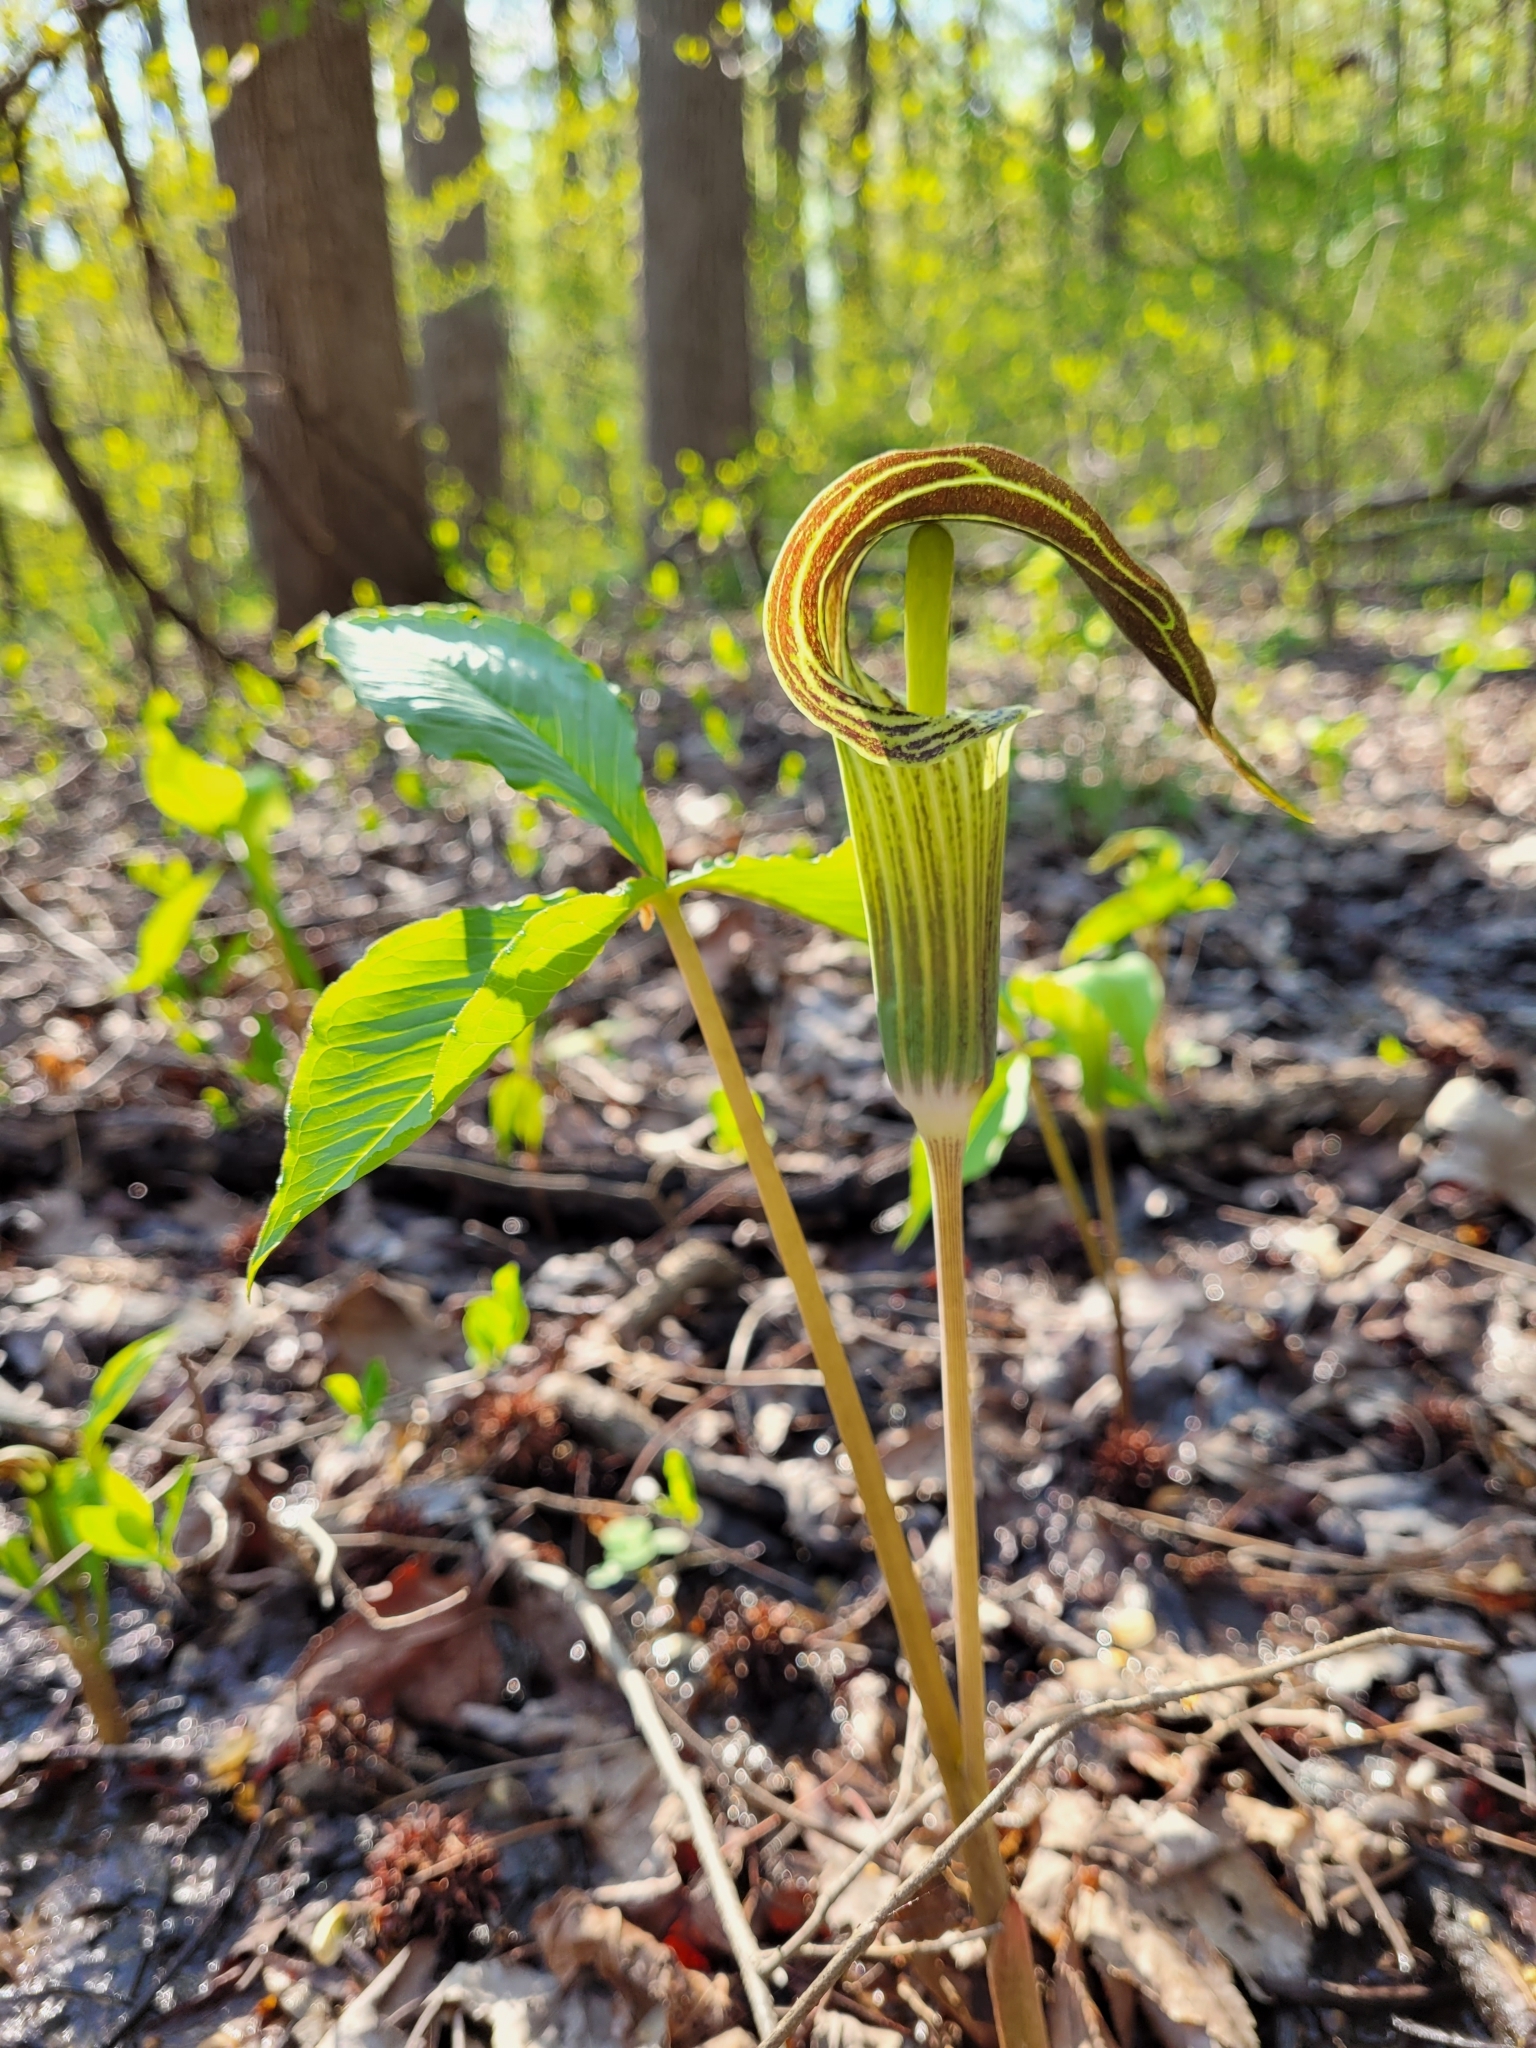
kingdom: Plantae
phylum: Tracheophyta
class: Liliopsida
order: Alismatales
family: Araceae
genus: Arisaema
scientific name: Arisaema triphyllum
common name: Jack-in-the-pulpit
